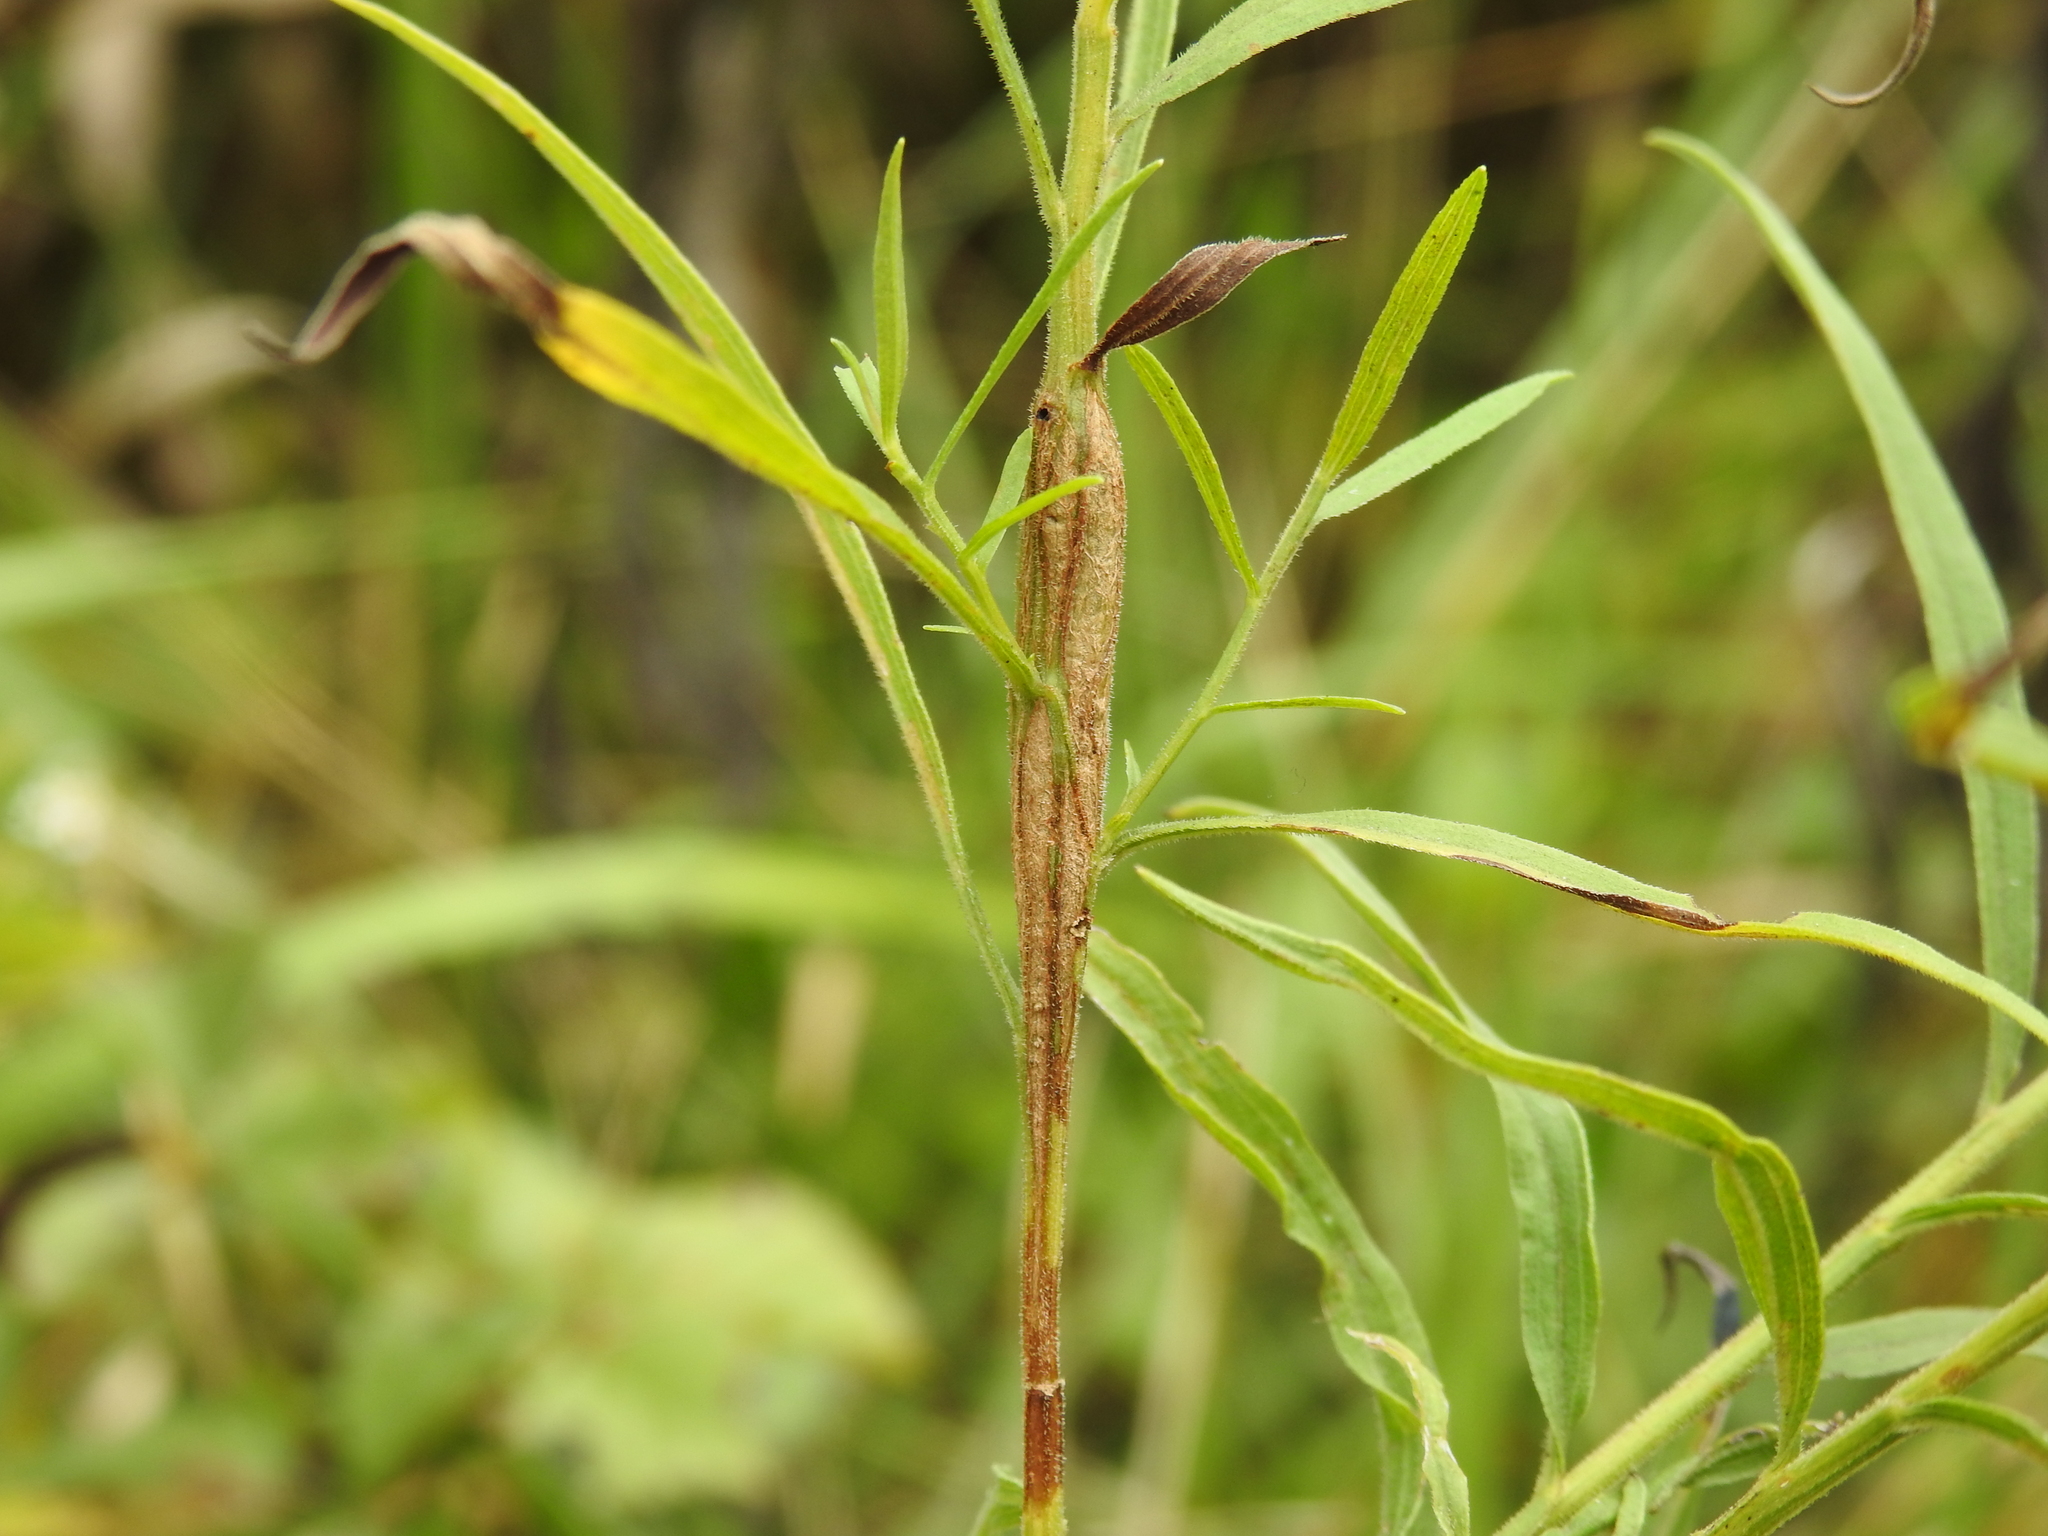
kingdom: Animalia
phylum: Arthropoda
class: Insecta
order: Lepidoptera
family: Tortricidae
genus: Epiblema
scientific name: Epiblema desertana
